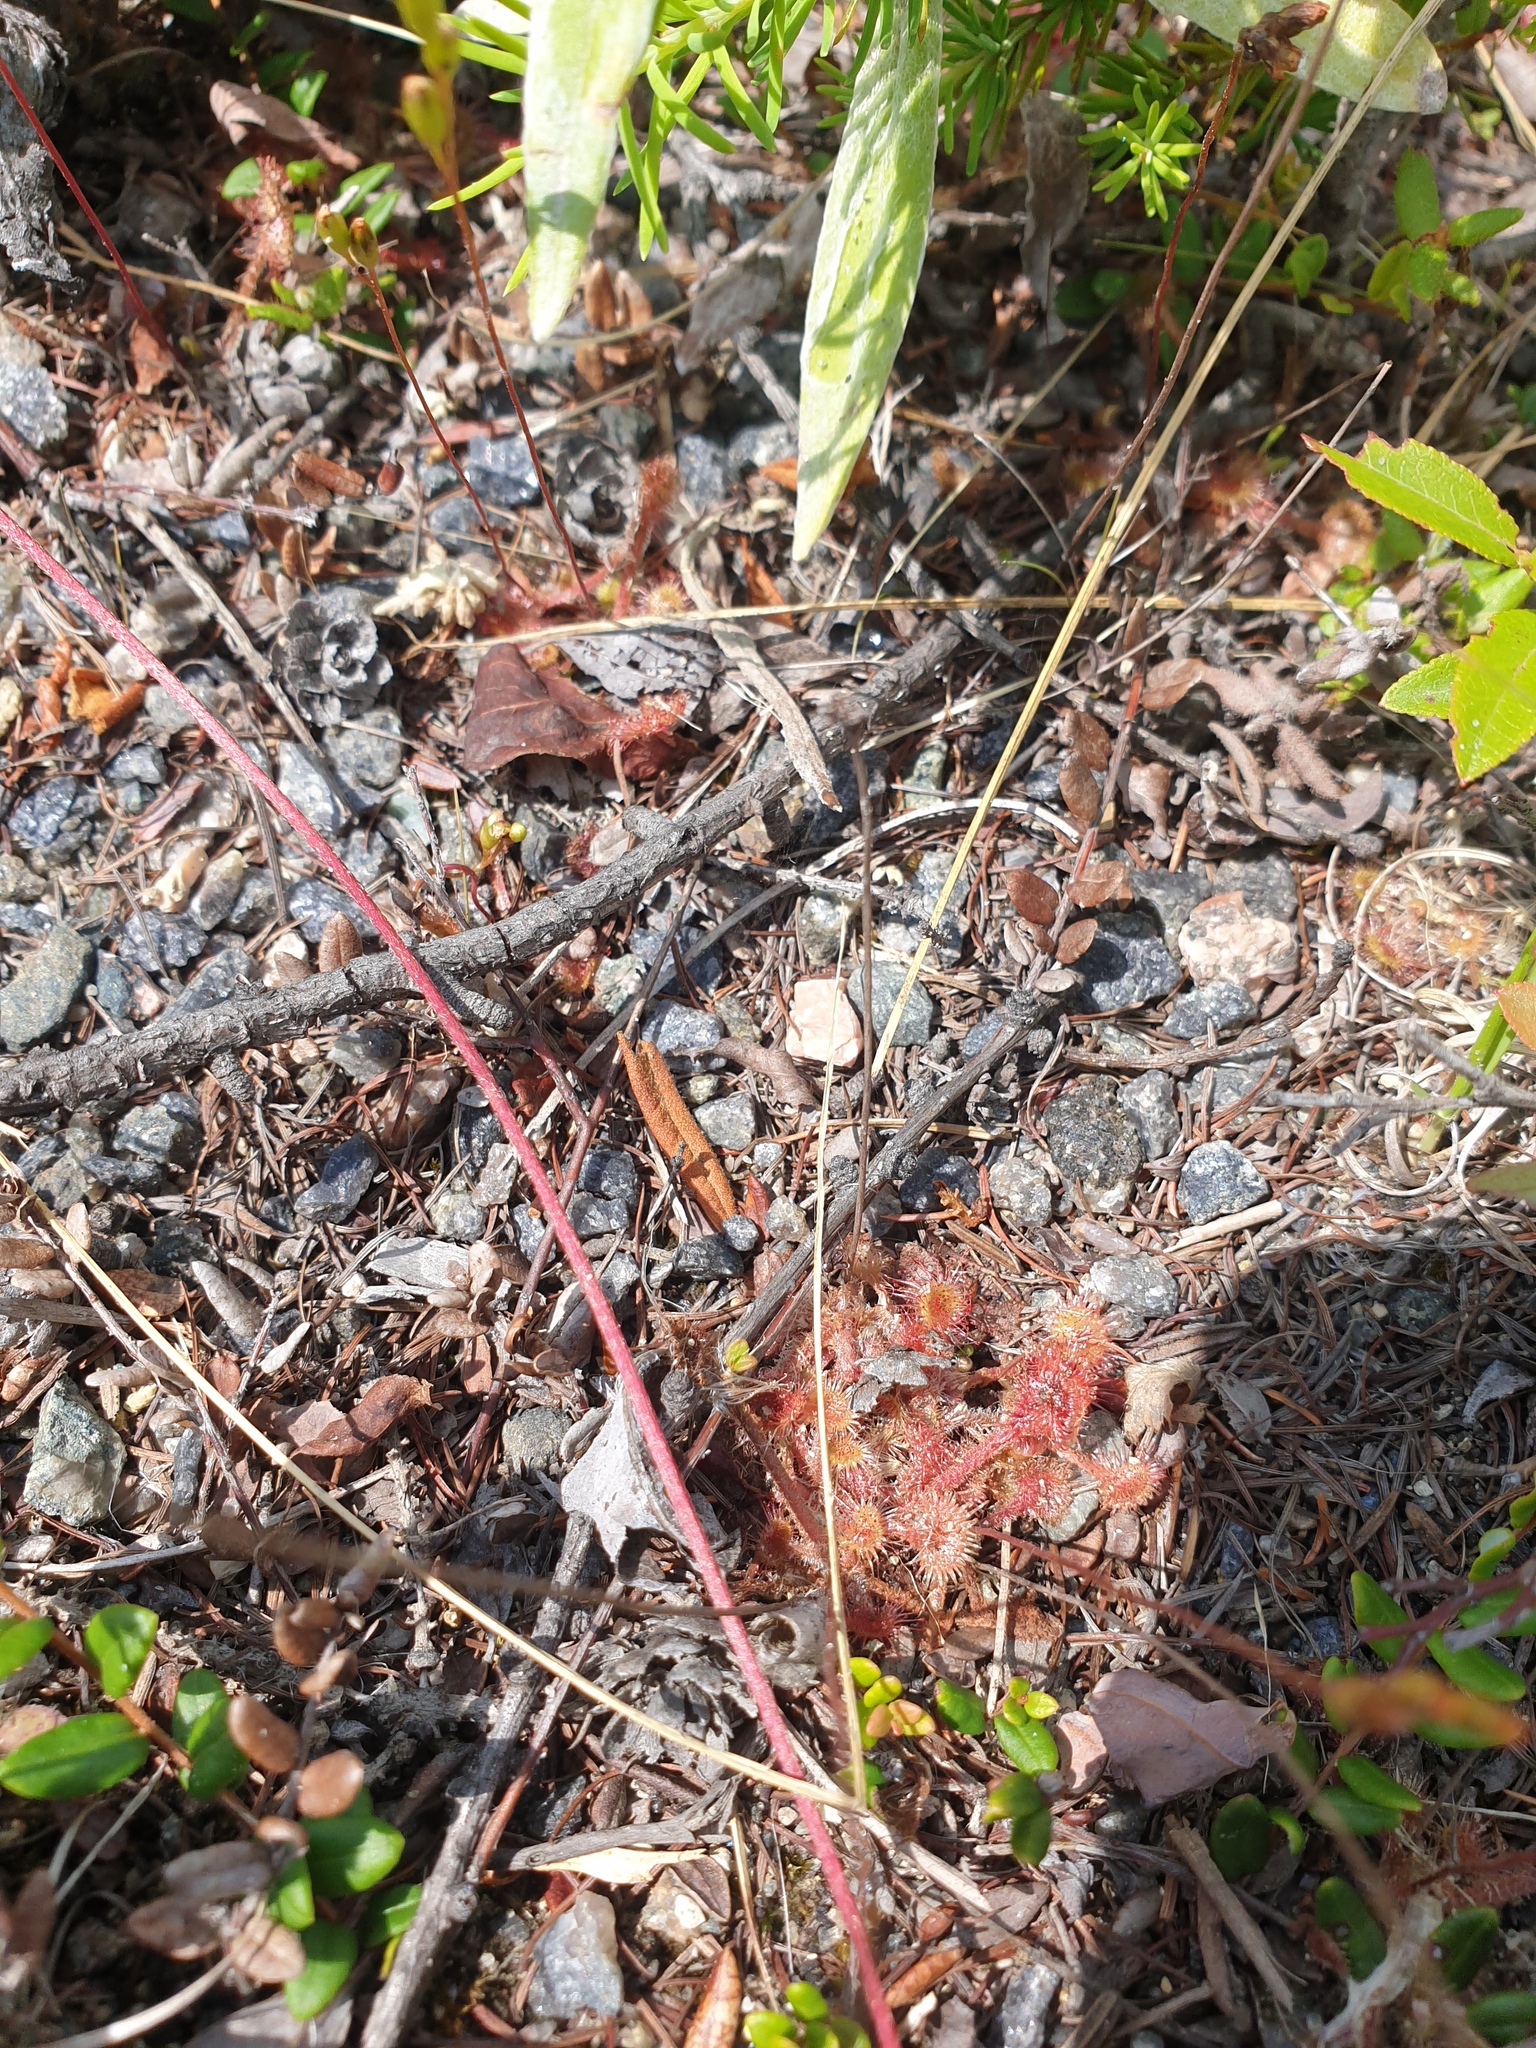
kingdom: Plantae
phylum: Tracheophyta
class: Magnoliopsida
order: Gentianales
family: Apocynaceae
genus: Apocynum
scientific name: Apocynum androsaemifolium
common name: Spreading dogbane
